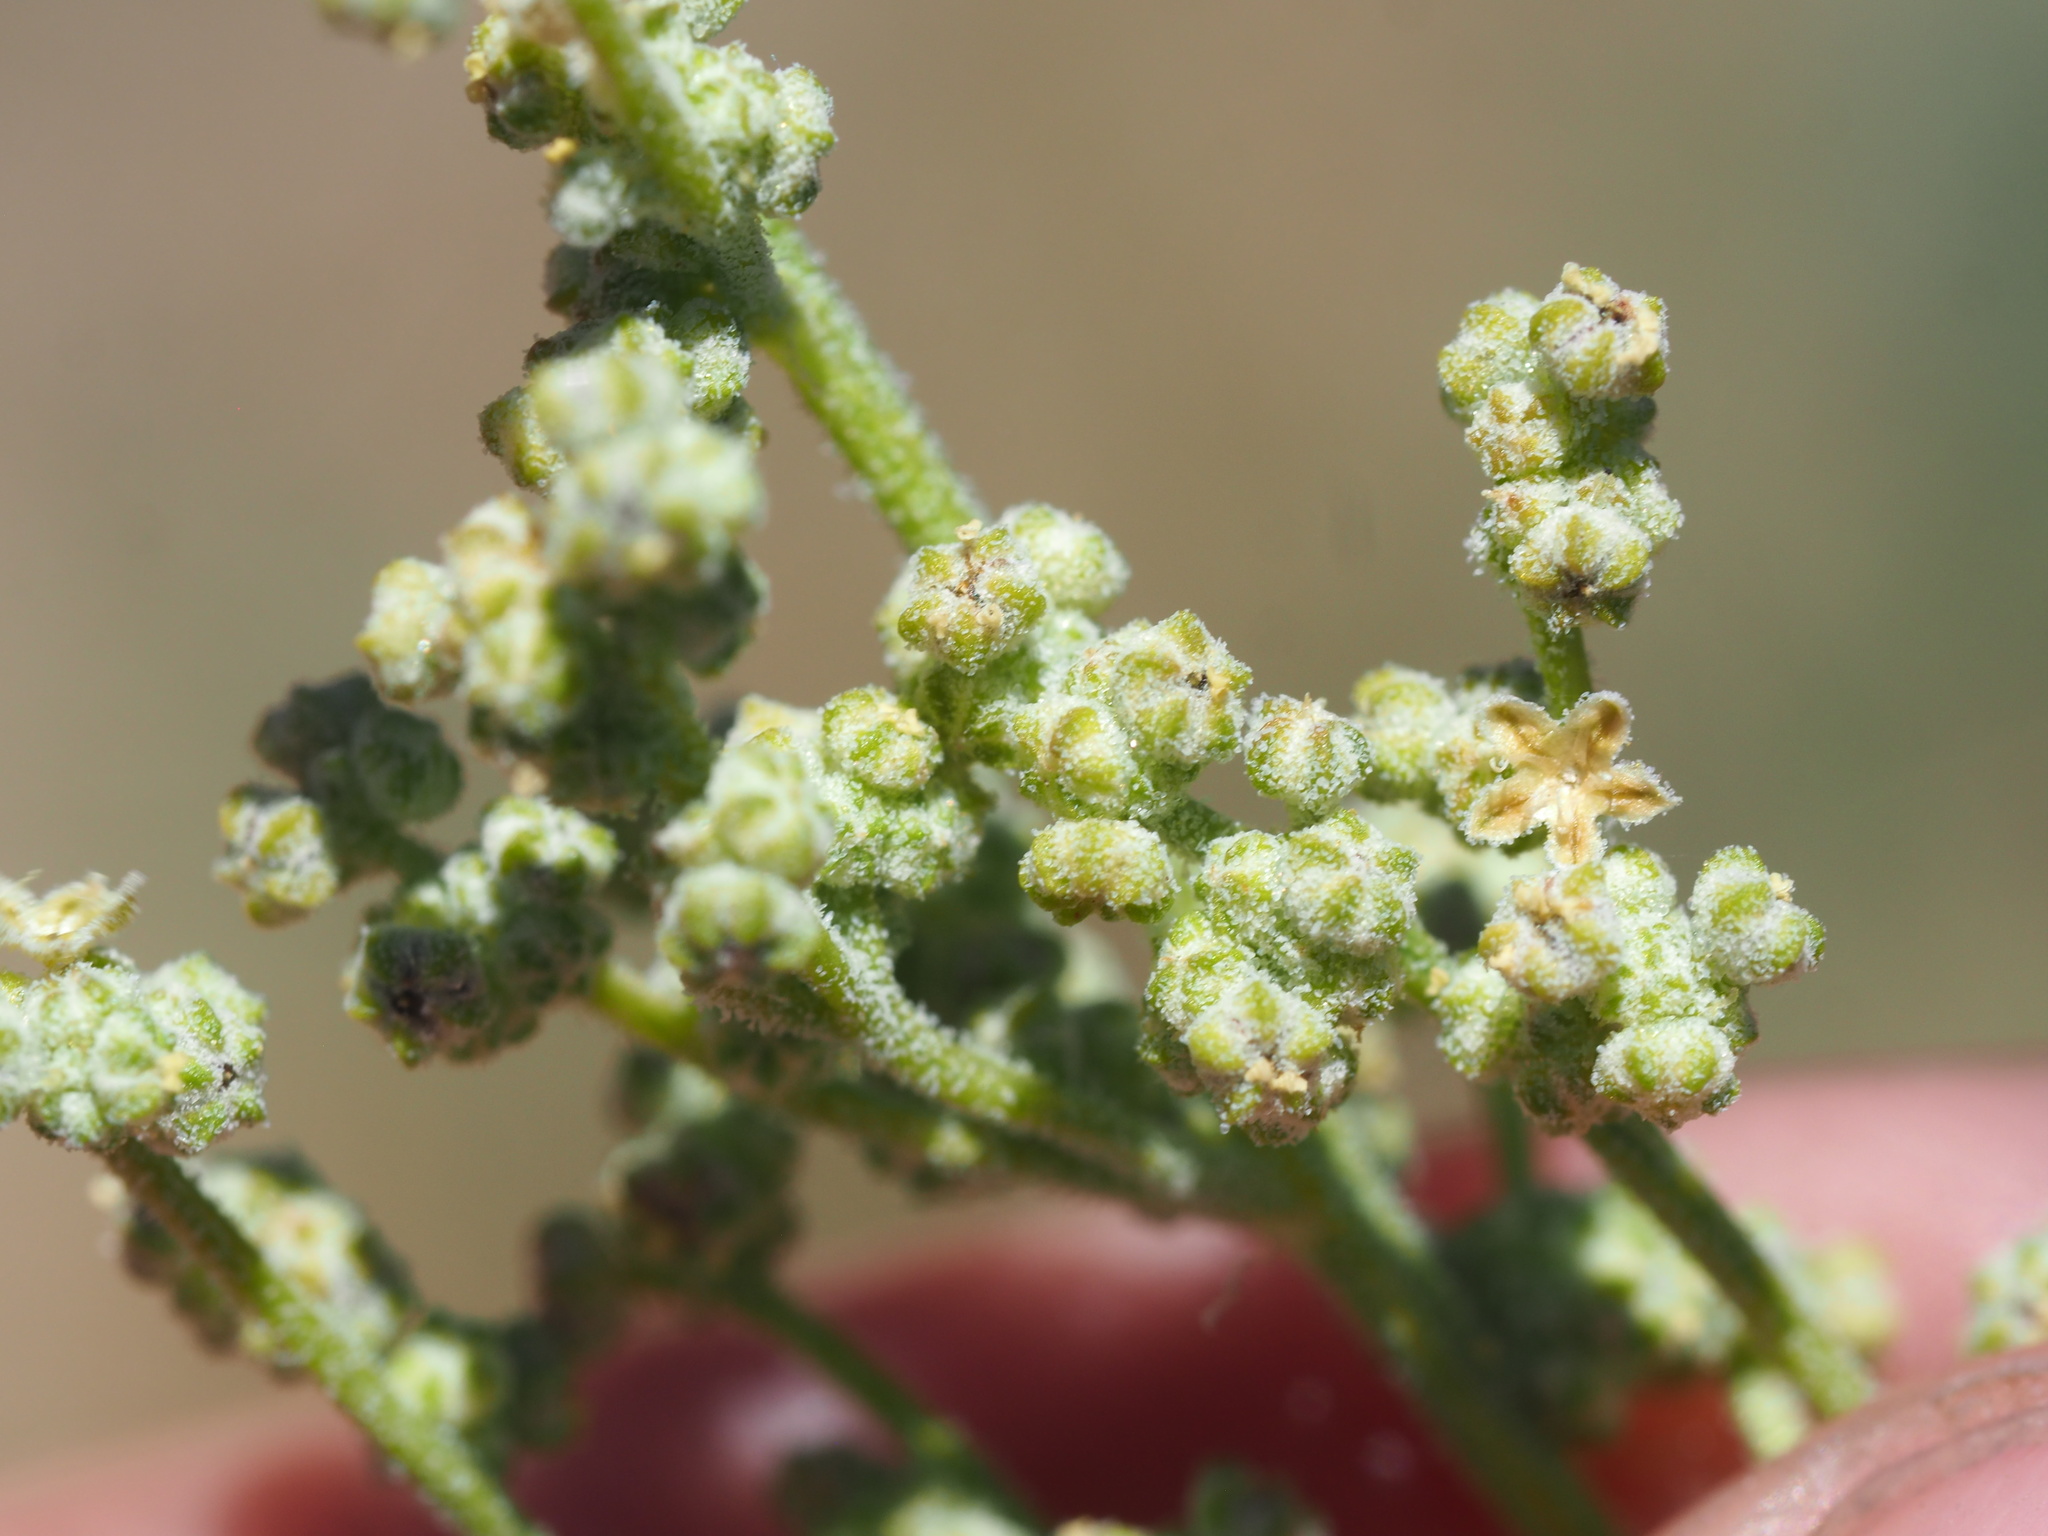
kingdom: Plantae
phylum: Tracheophyta
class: Magnoliopsida
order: Caryophyllales
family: Amaranthaceae
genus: Chenopodium
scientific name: Chenopodium leptophyllum
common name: Narrow-leaf goosefoot
